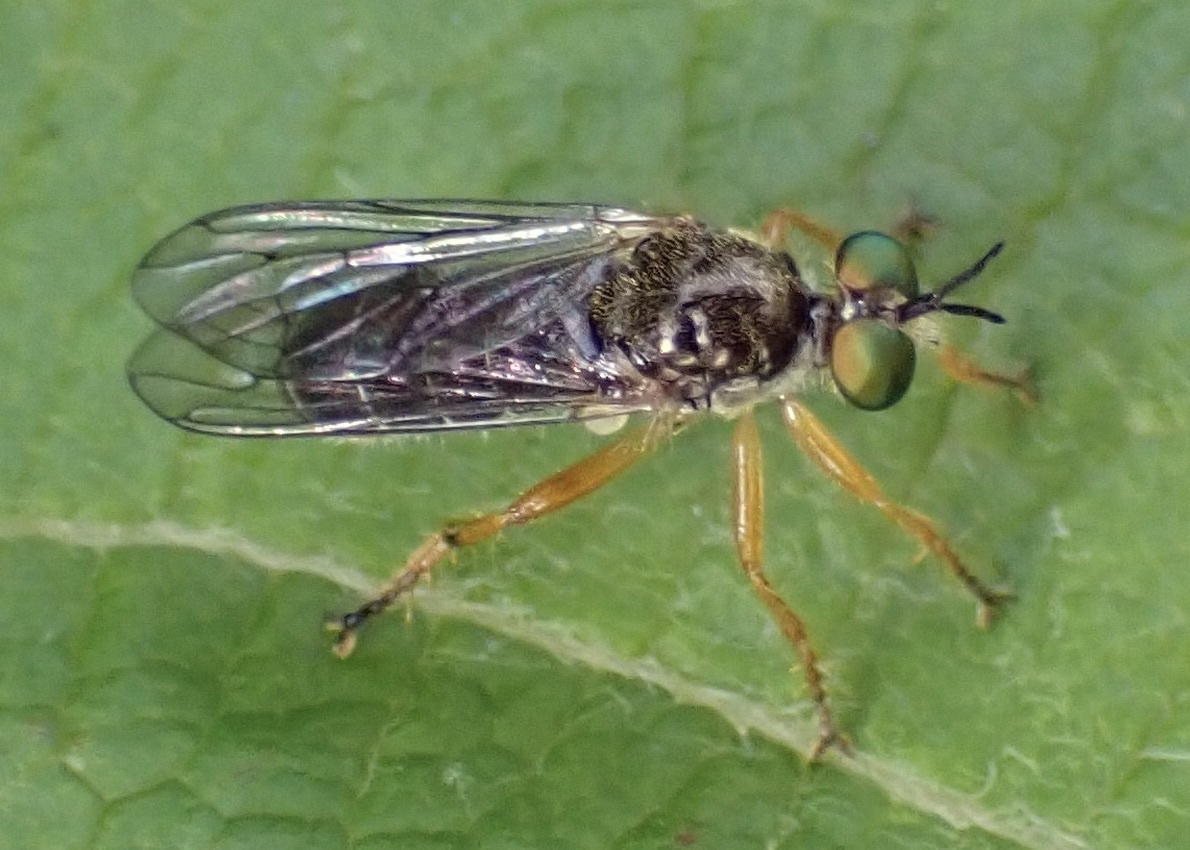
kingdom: Animalia
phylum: Arthropoda
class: Insecta
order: Diptera
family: Asilidae
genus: Atomosia
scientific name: Atomosia rufipes
